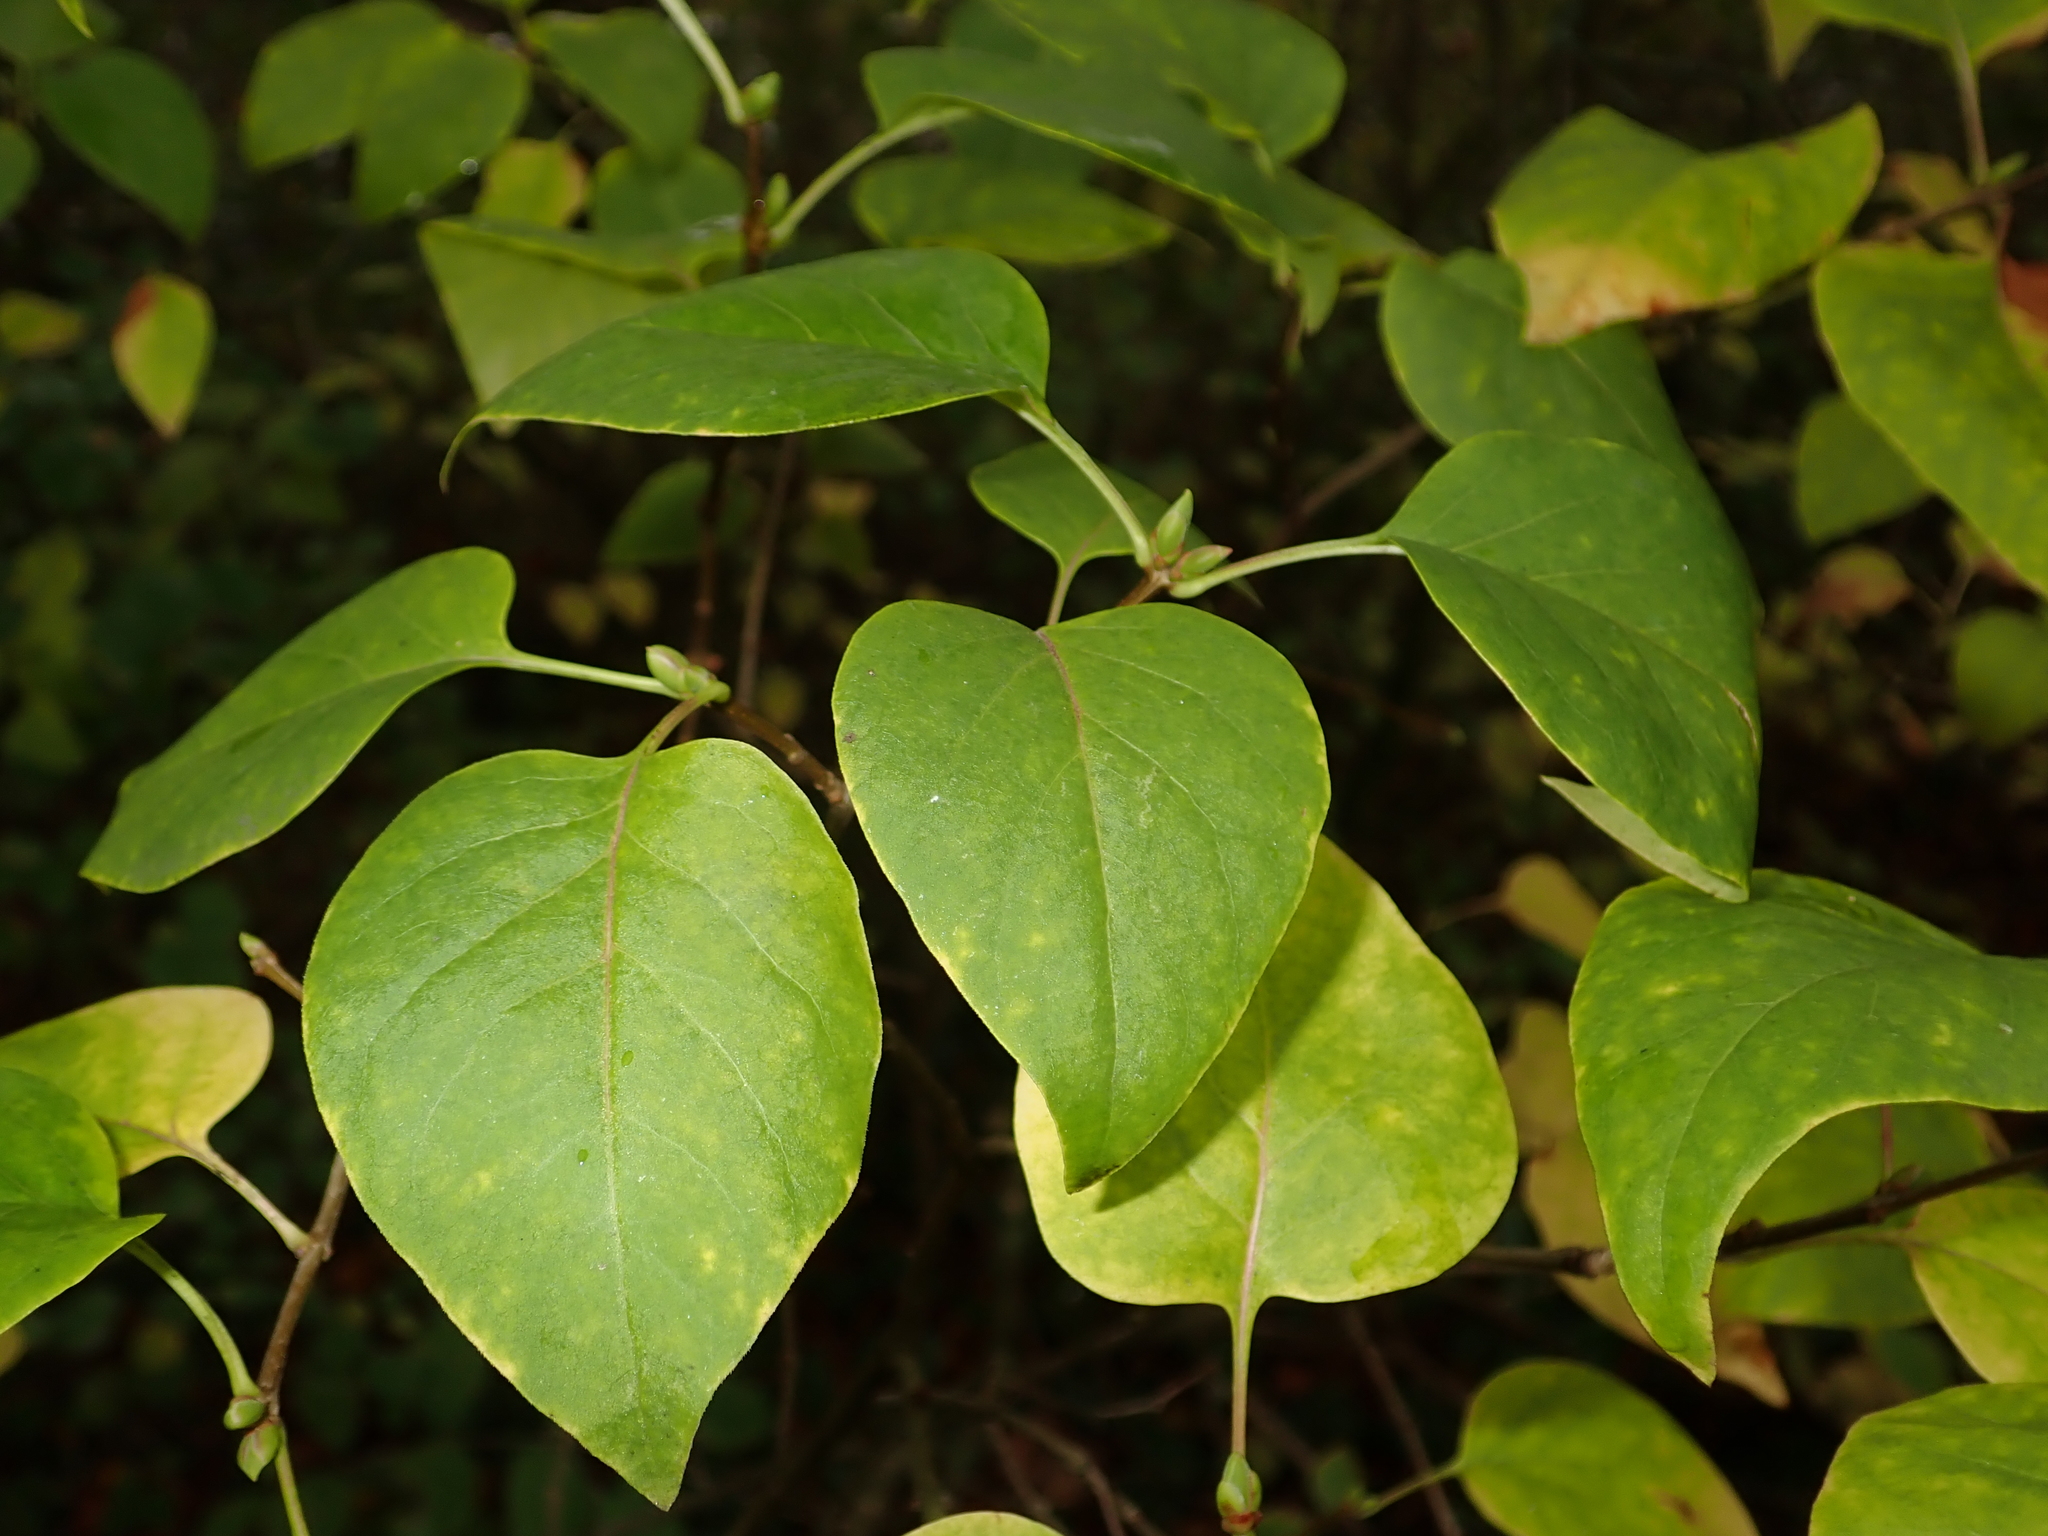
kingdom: Plantae
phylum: Tracheophyta
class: Magnoliopsida
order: Lamiales
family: Oleaceae
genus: Syringa
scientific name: Syringa vulgaris
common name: Common lilac
